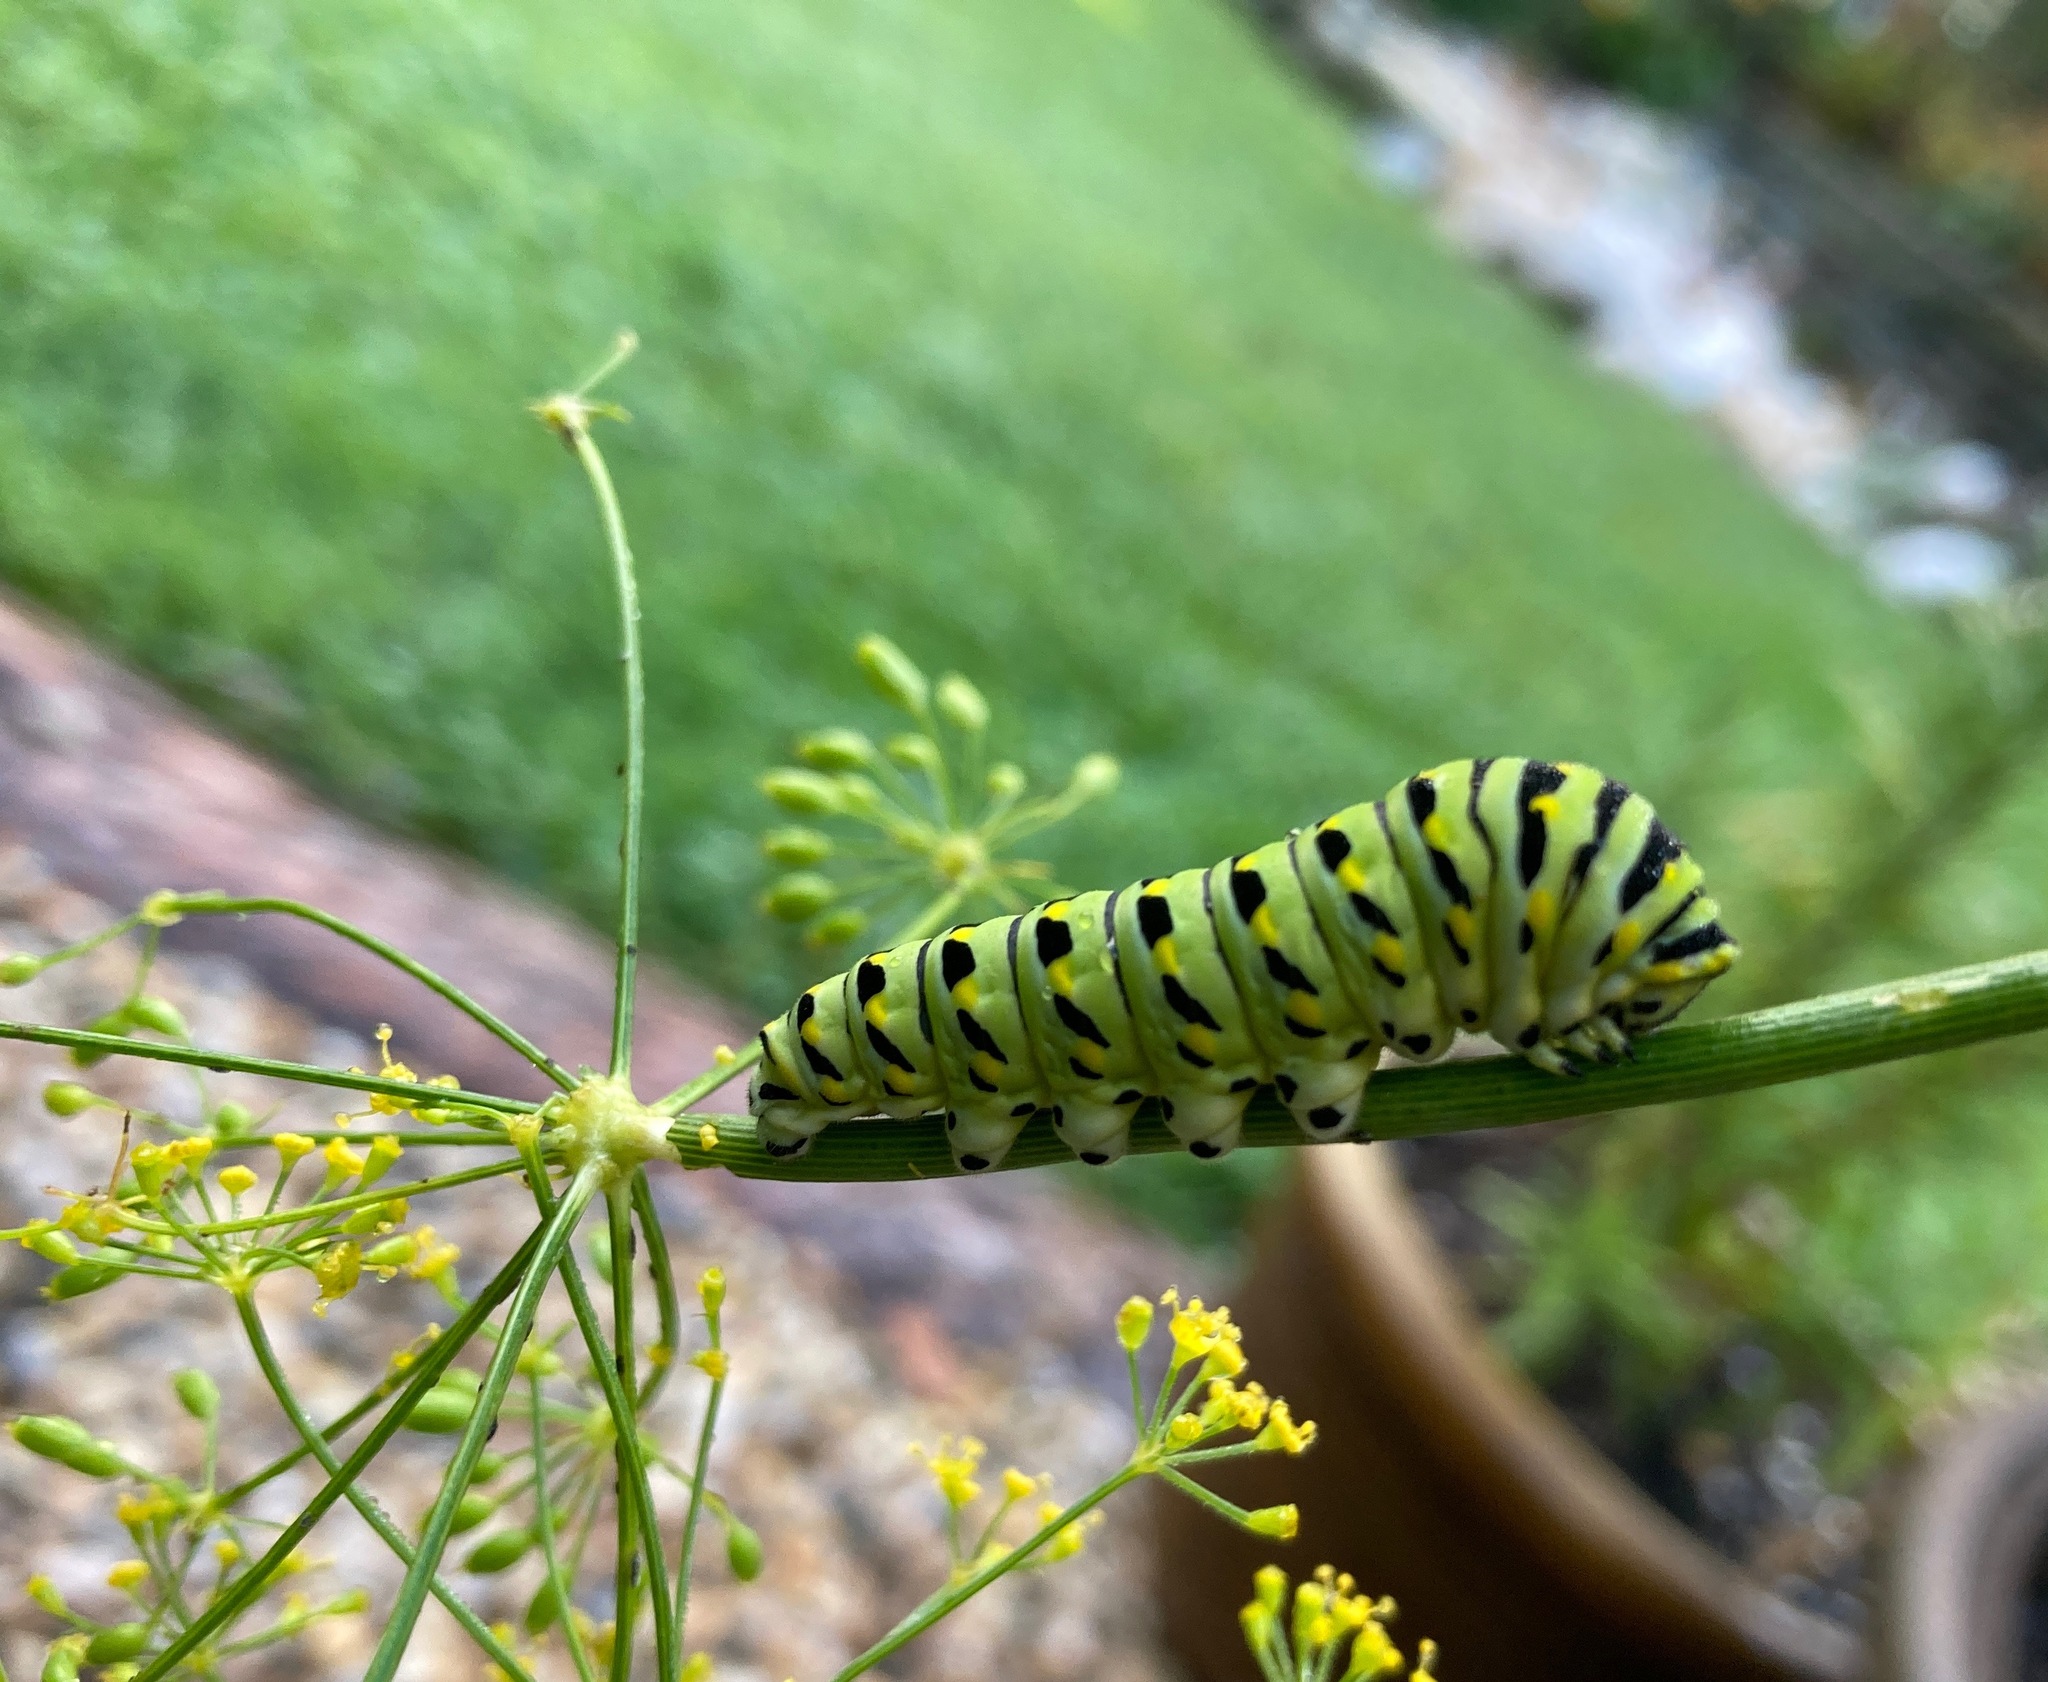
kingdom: Animalia
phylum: Arthropoda
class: Insecta
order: Lepidoptera
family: Papilionidae
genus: Papilio
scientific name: Papilio polyxenes
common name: Black swallowtail
